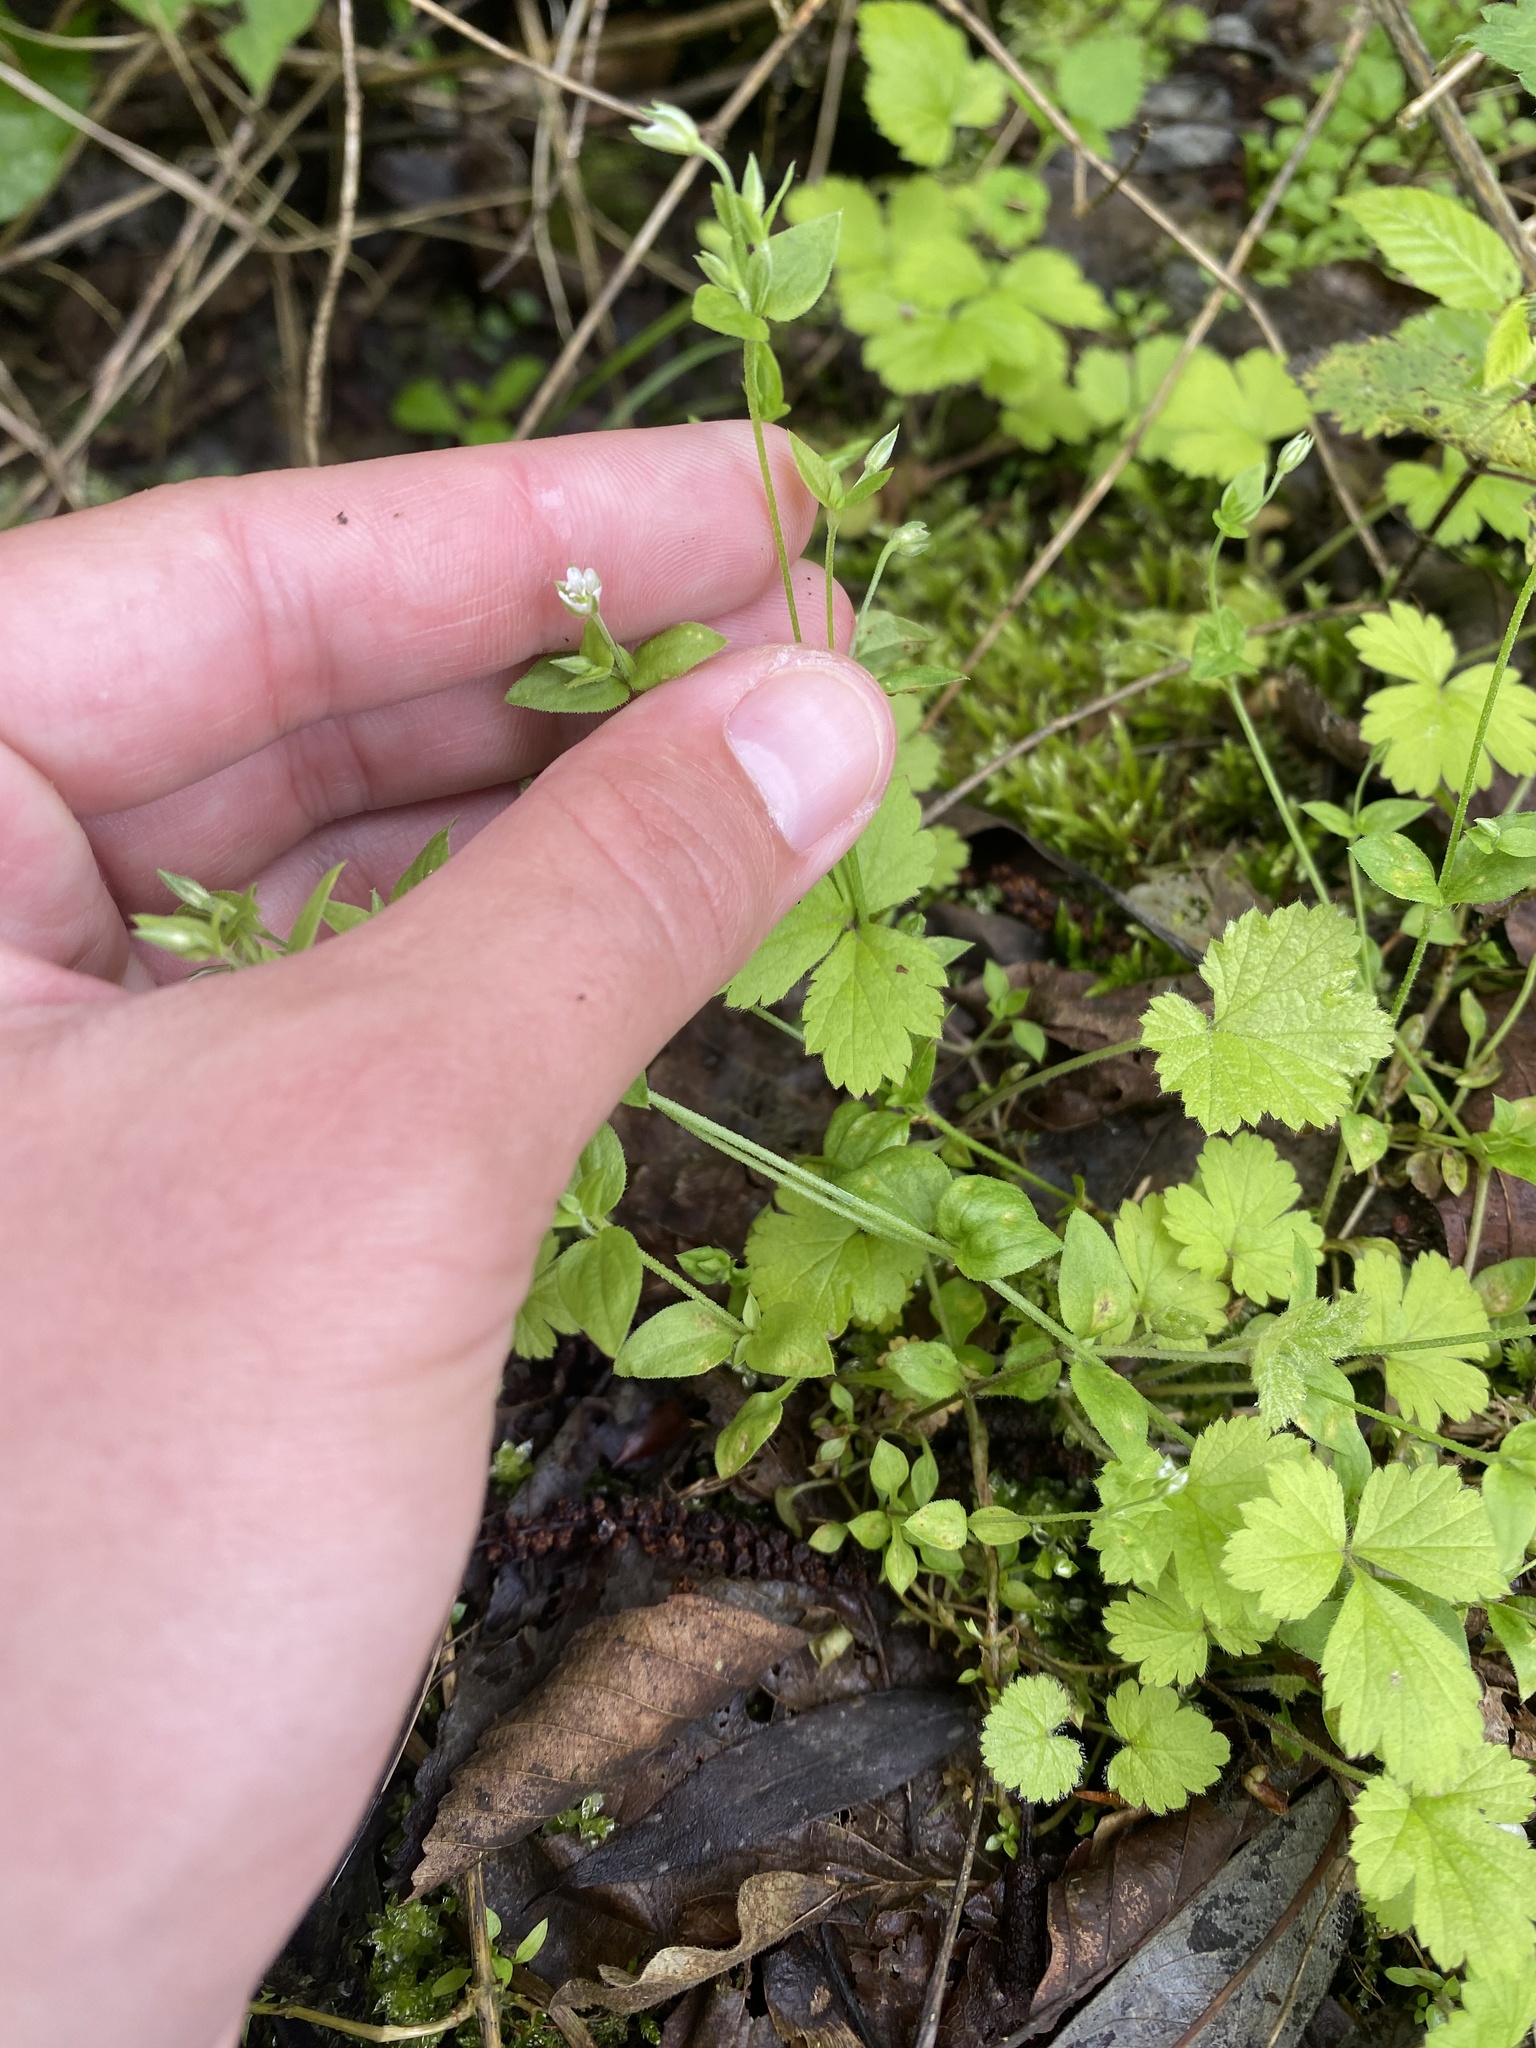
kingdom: Plantae
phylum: Tracheophyta
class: Magnoliopsida
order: Caryophyllales
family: Caryophyllaceae
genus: Moehringia
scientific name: Moehringia trinervia
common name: Three-nerved sandwort
